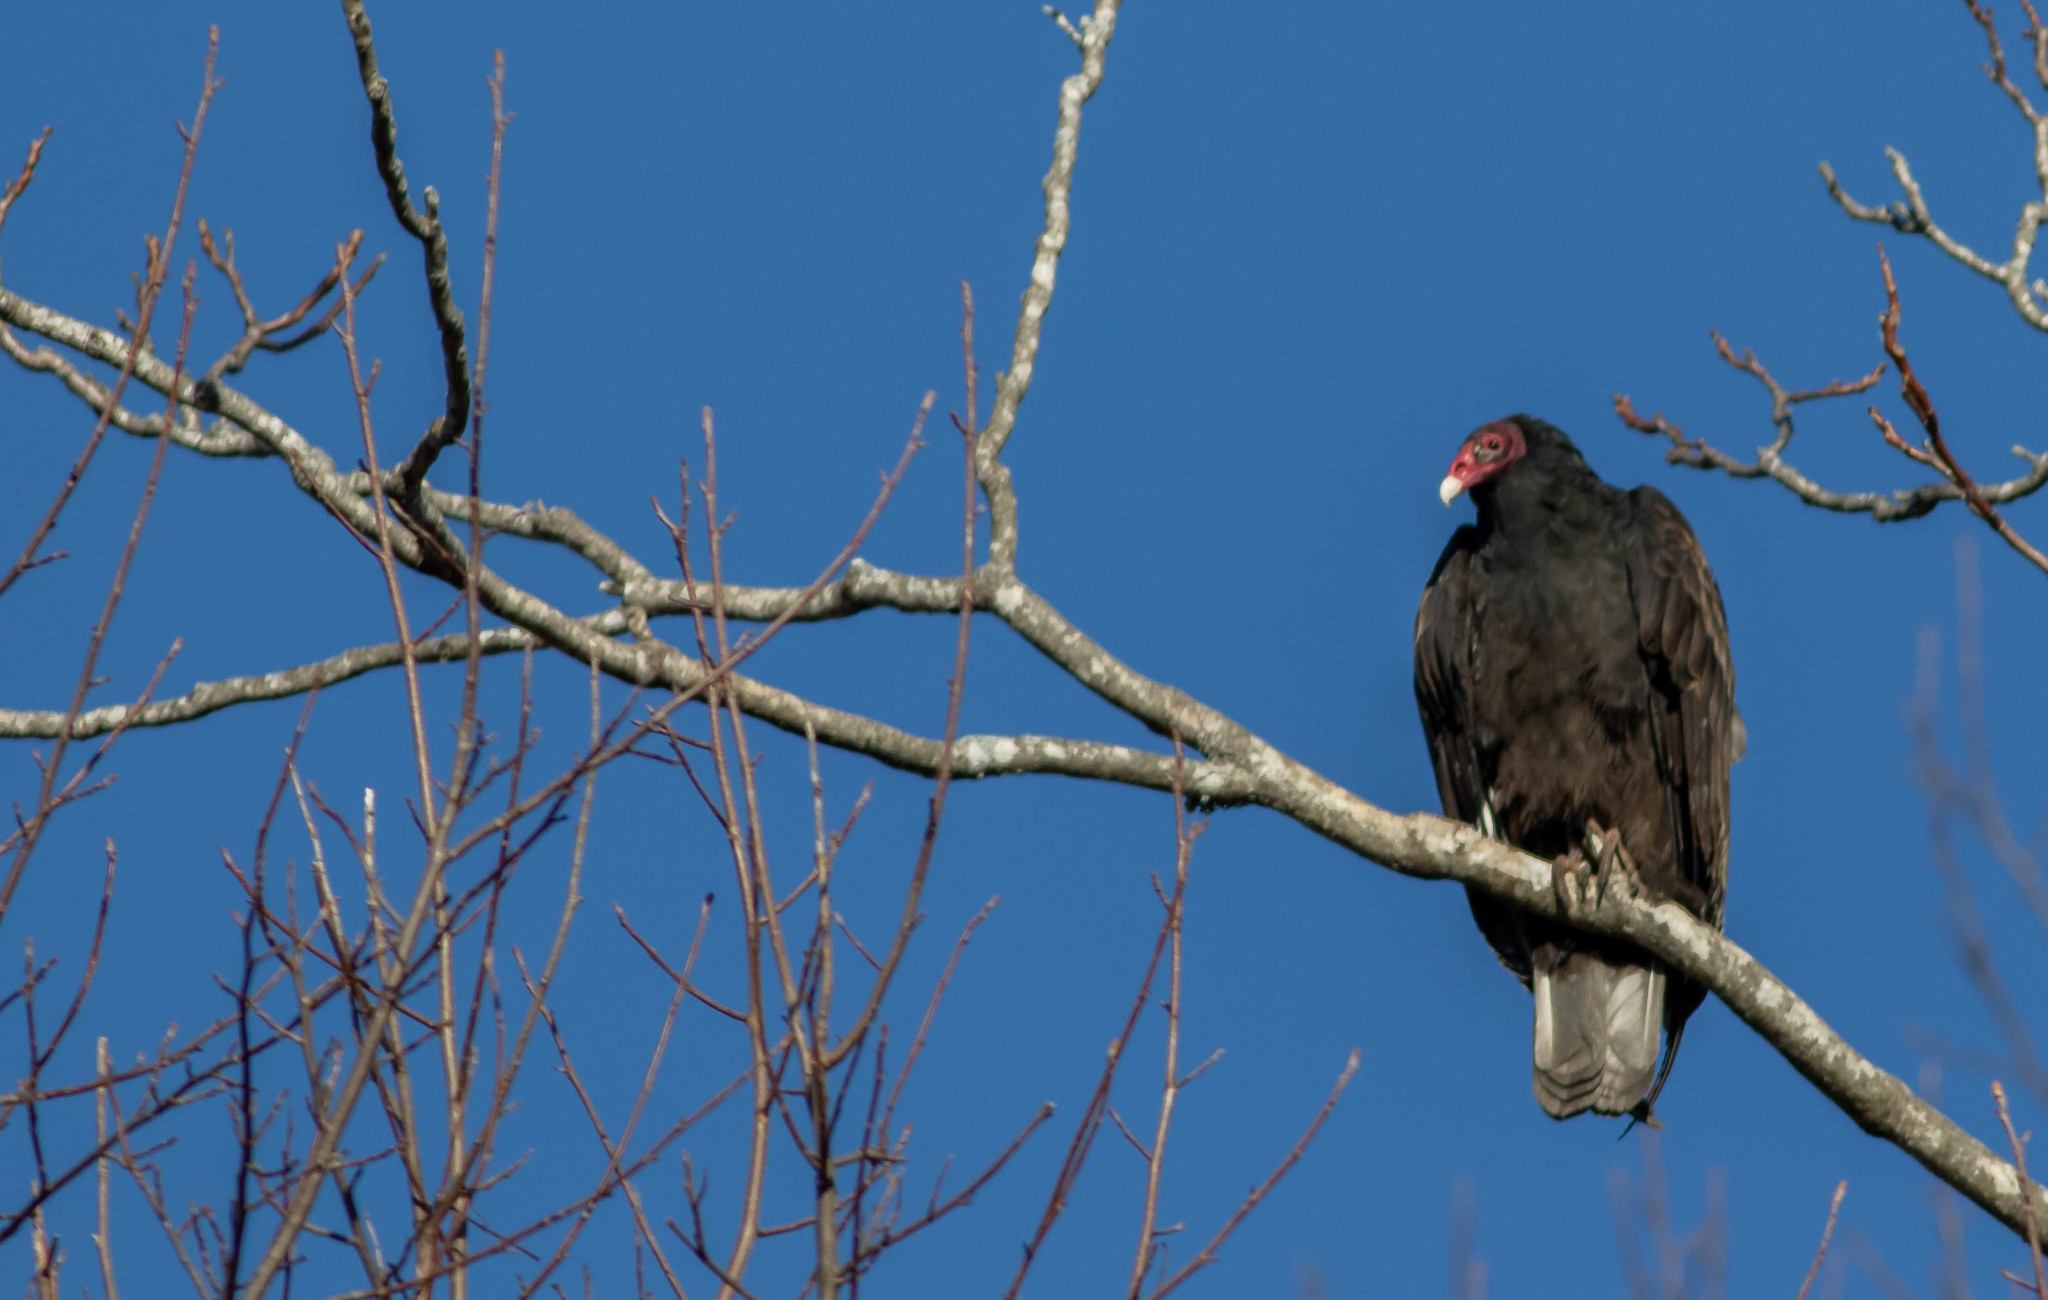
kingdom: Animalia
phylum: Chordata
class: Aves
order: Accipitriformes
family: Cathartidae
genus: Cathartes
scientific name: Cathartes aura
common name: Turkey vulture
